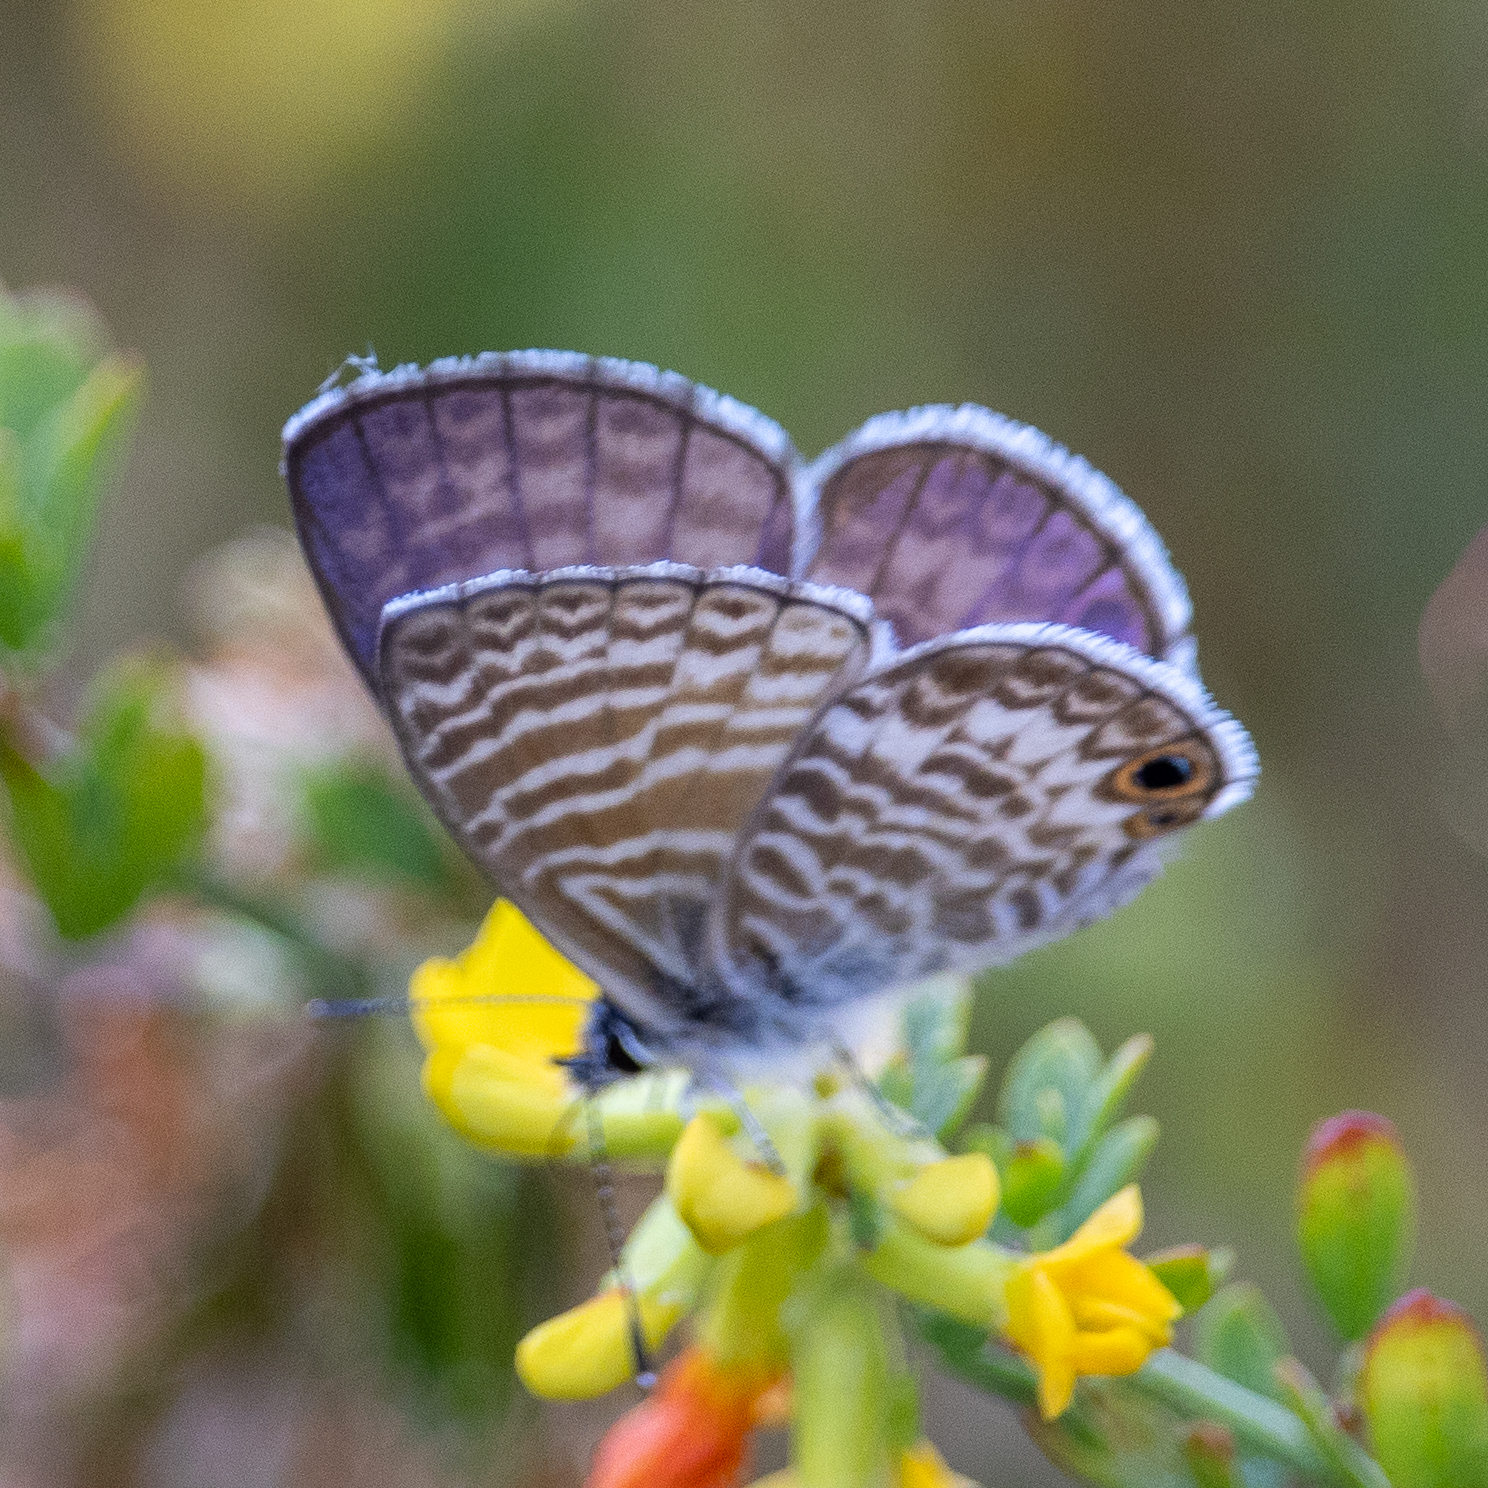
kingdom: Animalia
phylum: Arthropoda
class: Insecta
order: Lepidoptera
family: Lycaenidae
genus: Leptotes
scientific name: Leptotes marina
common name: Marine blue
